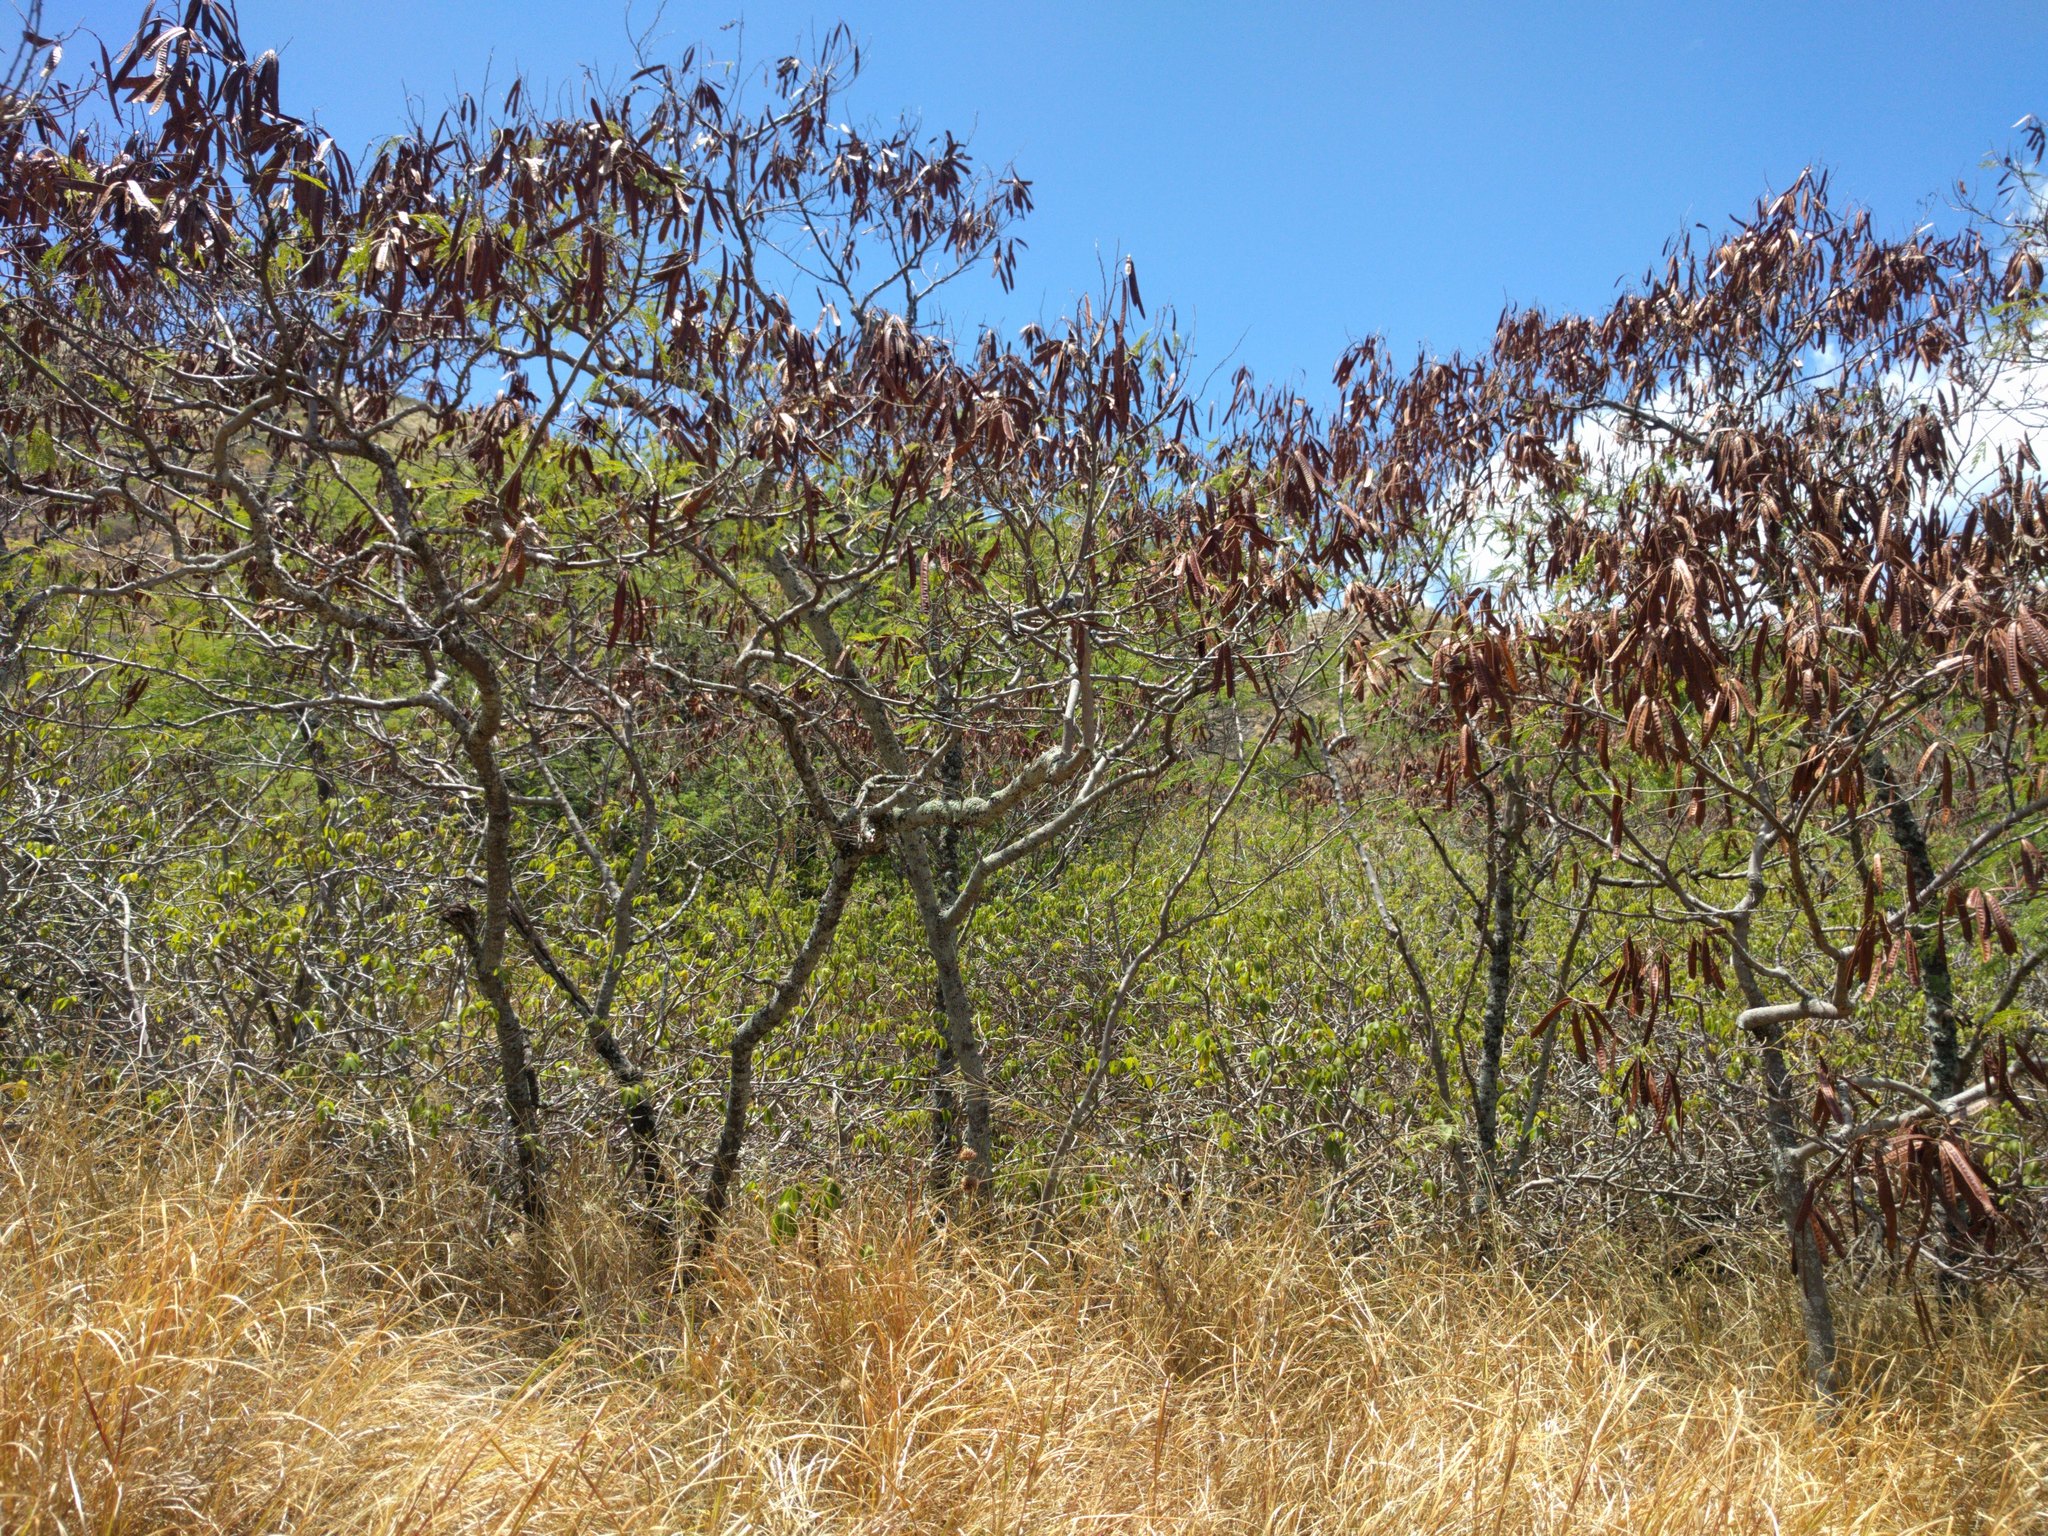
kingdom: Plantae
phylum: Tracheophyta
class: Magnoliopsida
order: Fabales
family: Fabaceae
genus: Leucaena
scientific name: Leucaena leucocephala
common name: White leadtree
